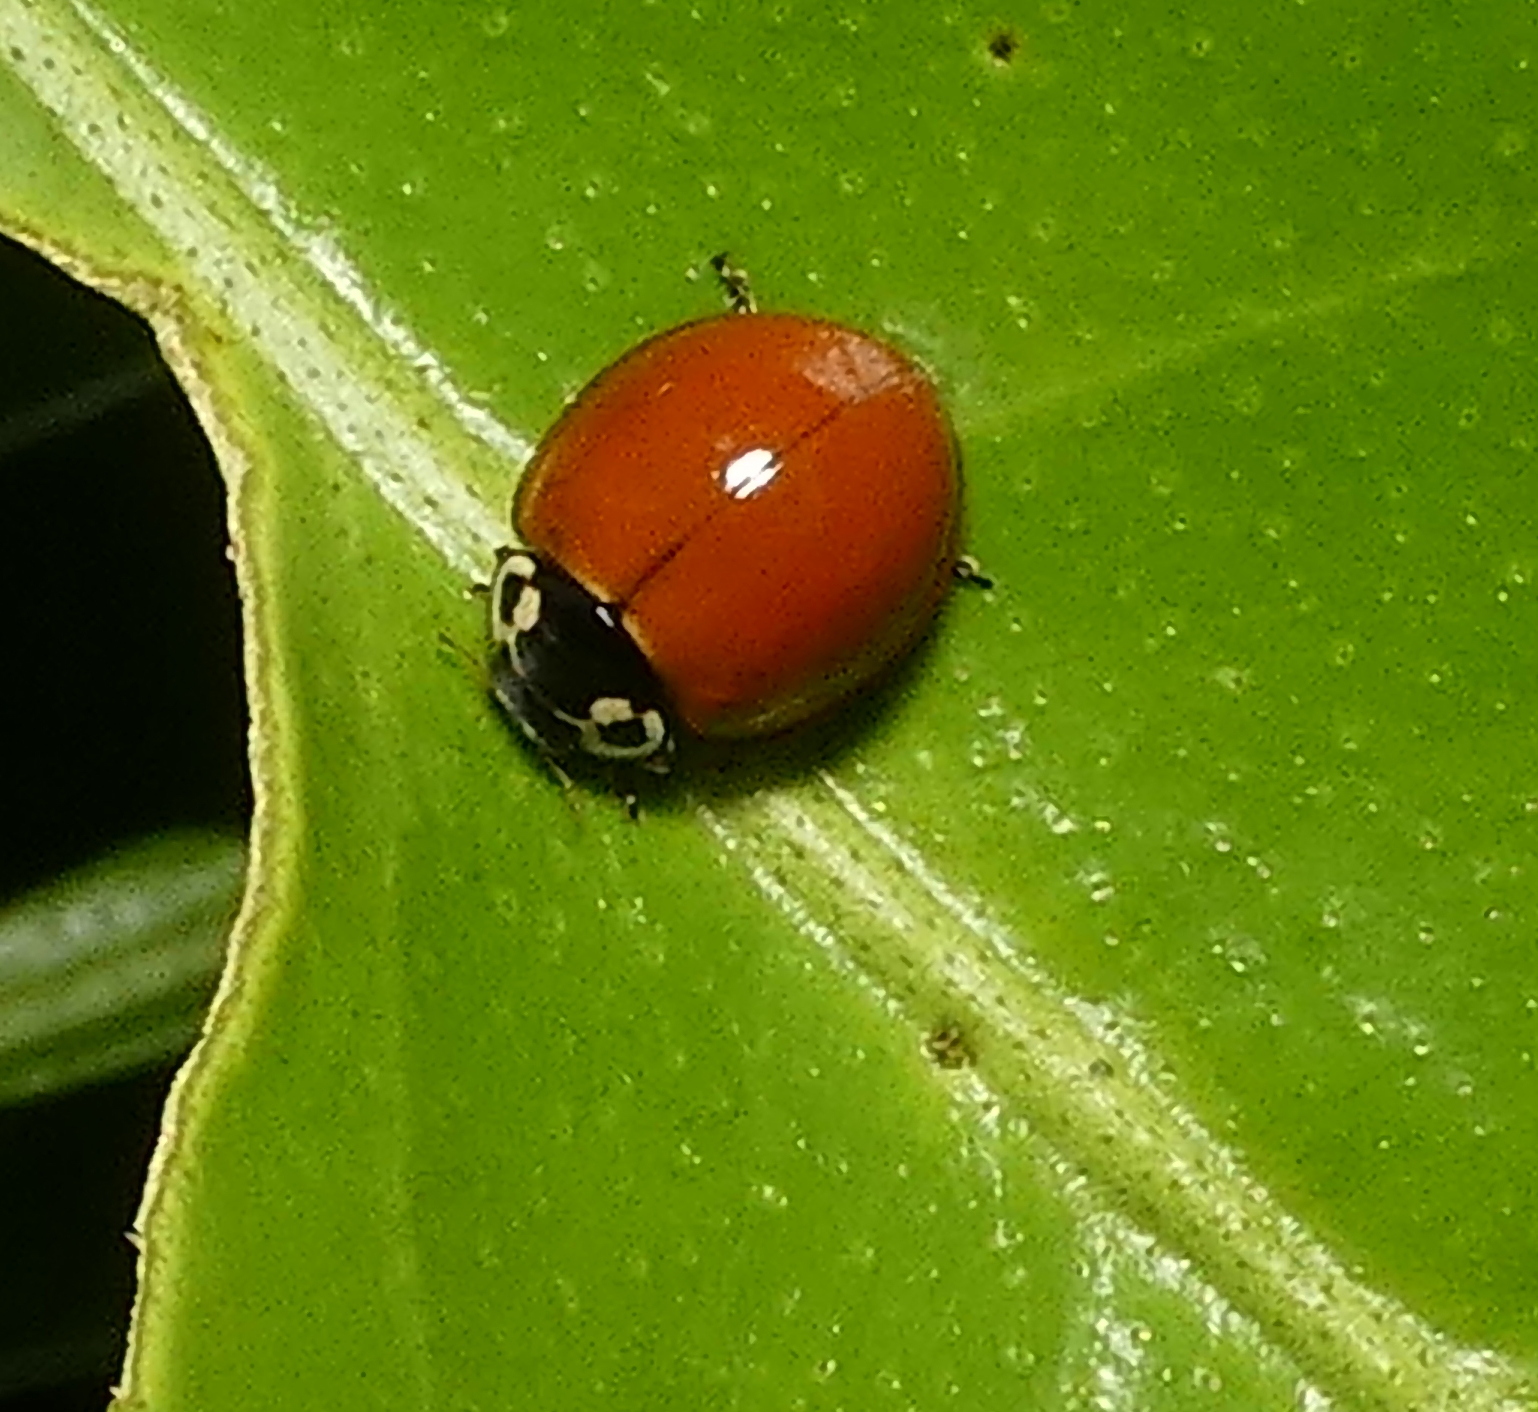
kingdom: Animalia
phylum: Arthropoda
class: Insecta
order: Coleoptera
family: Coccinellidae
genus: Cycloneda
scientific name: Cycloneda sanguinea
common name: Ladybird beetle
